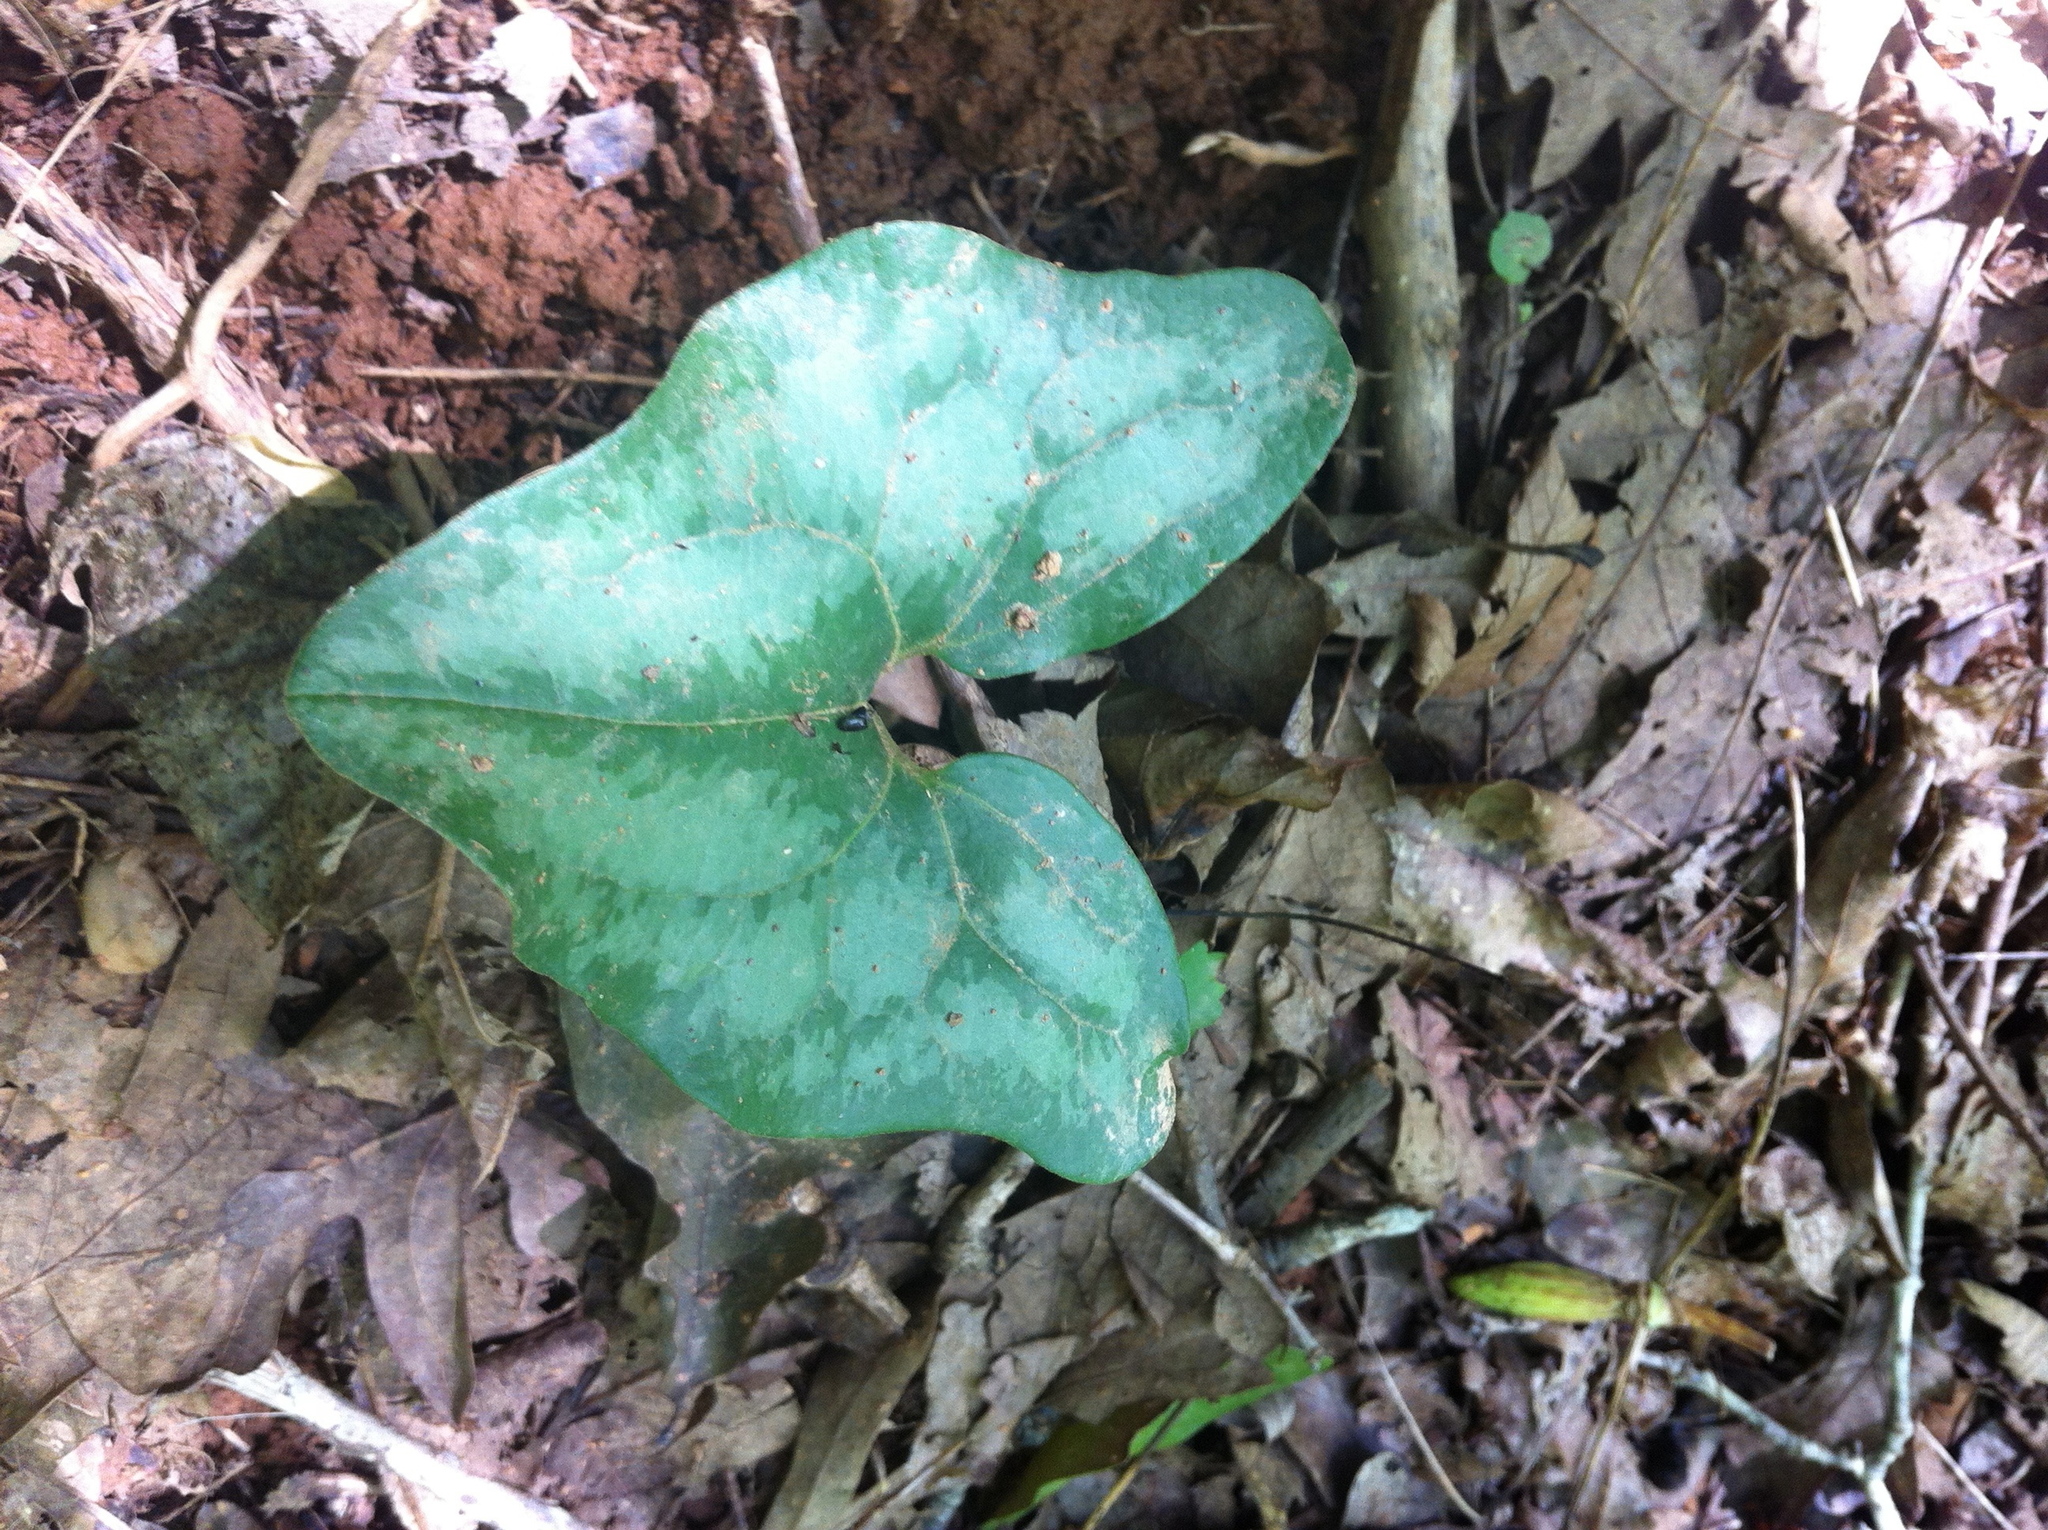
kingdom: Plantae
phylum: Tracheophyta
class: Magnoliopsida
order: Piperales
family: Aristolochiaceae
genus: Hexastylis
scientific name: Hexastylis arifolia
